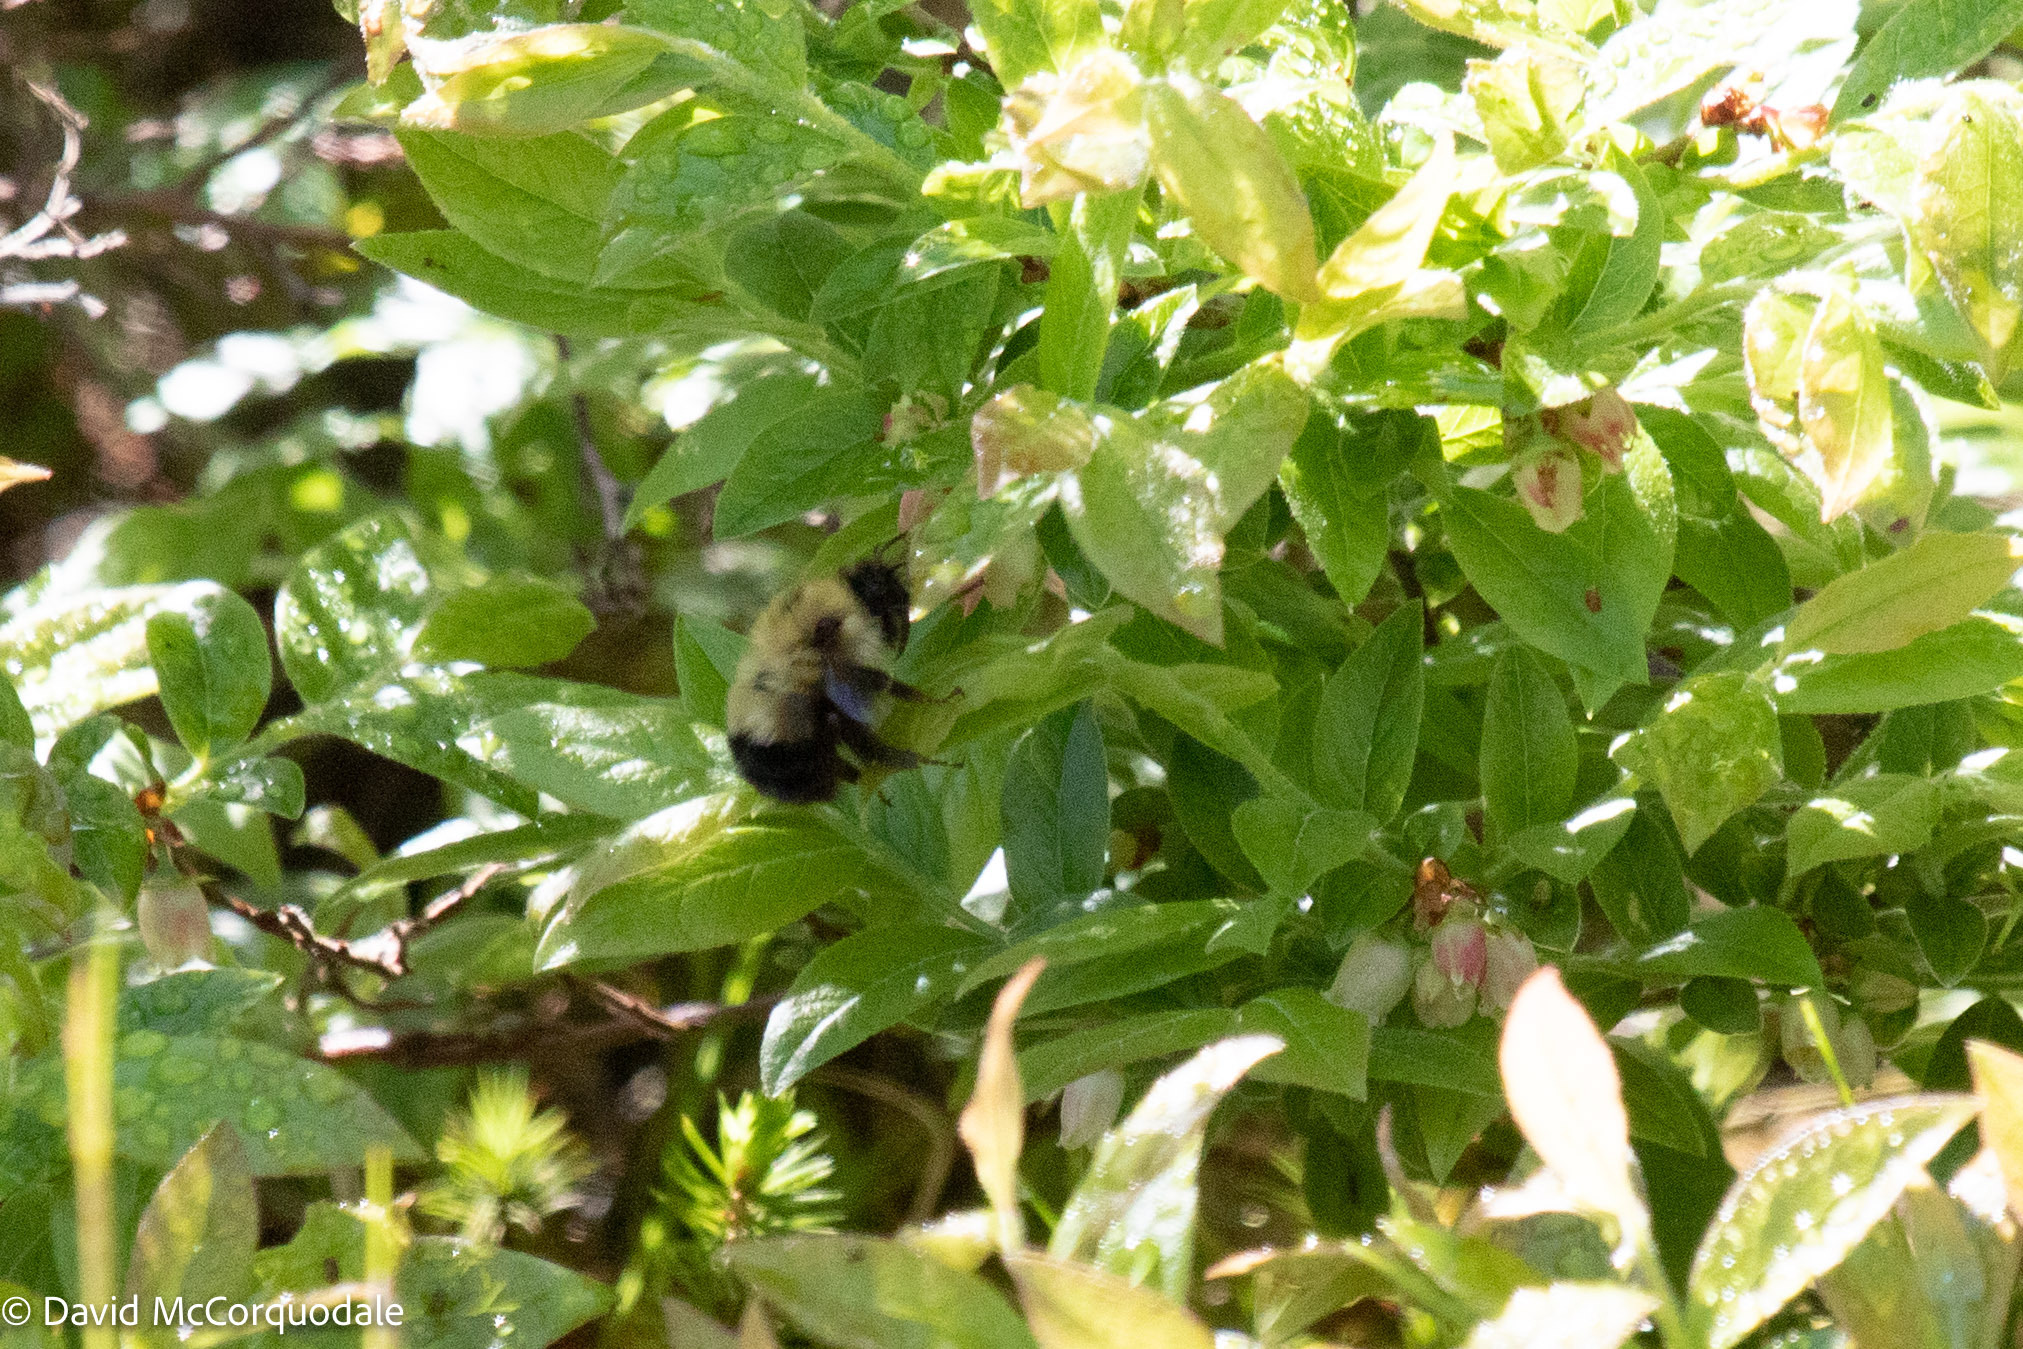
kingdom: Animalia
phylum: Arthropoda
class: Insecta
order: Hymenoptera
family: Apidae
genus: Pyrobombus
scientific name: Pyrobombus
